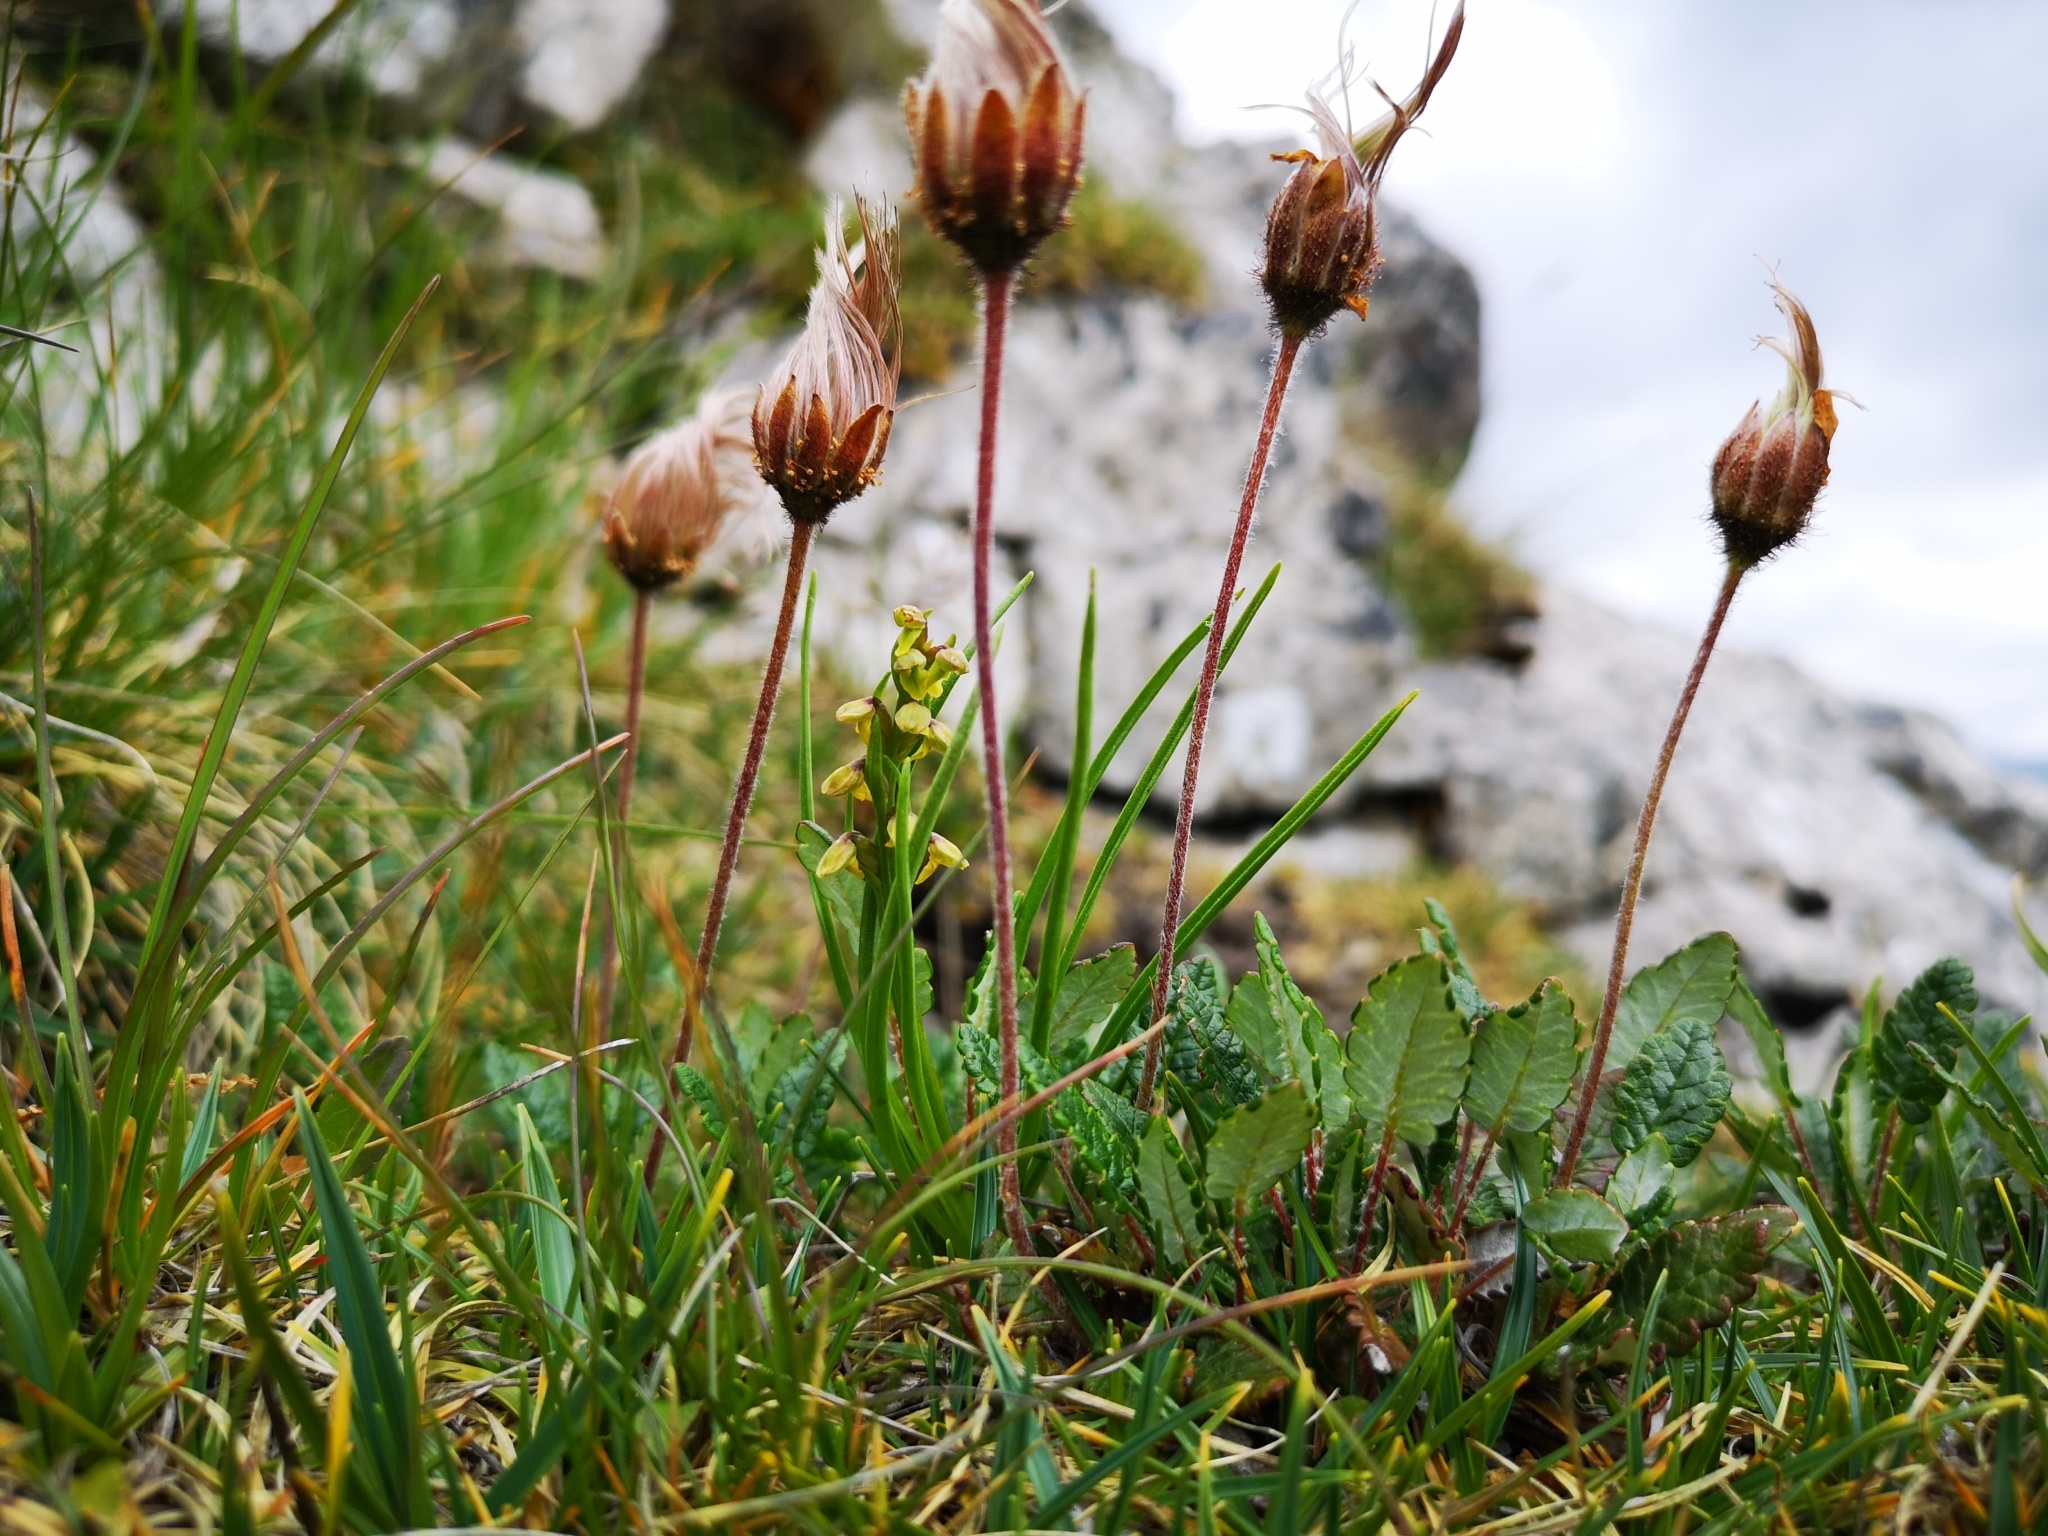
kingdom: Plantae
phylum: Tracheophyta
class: Magnoliopsida
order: Rosales
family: Rosaceae
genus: Dryas
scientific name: Dryas octopetala
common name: Eight-petal mountain-avens
